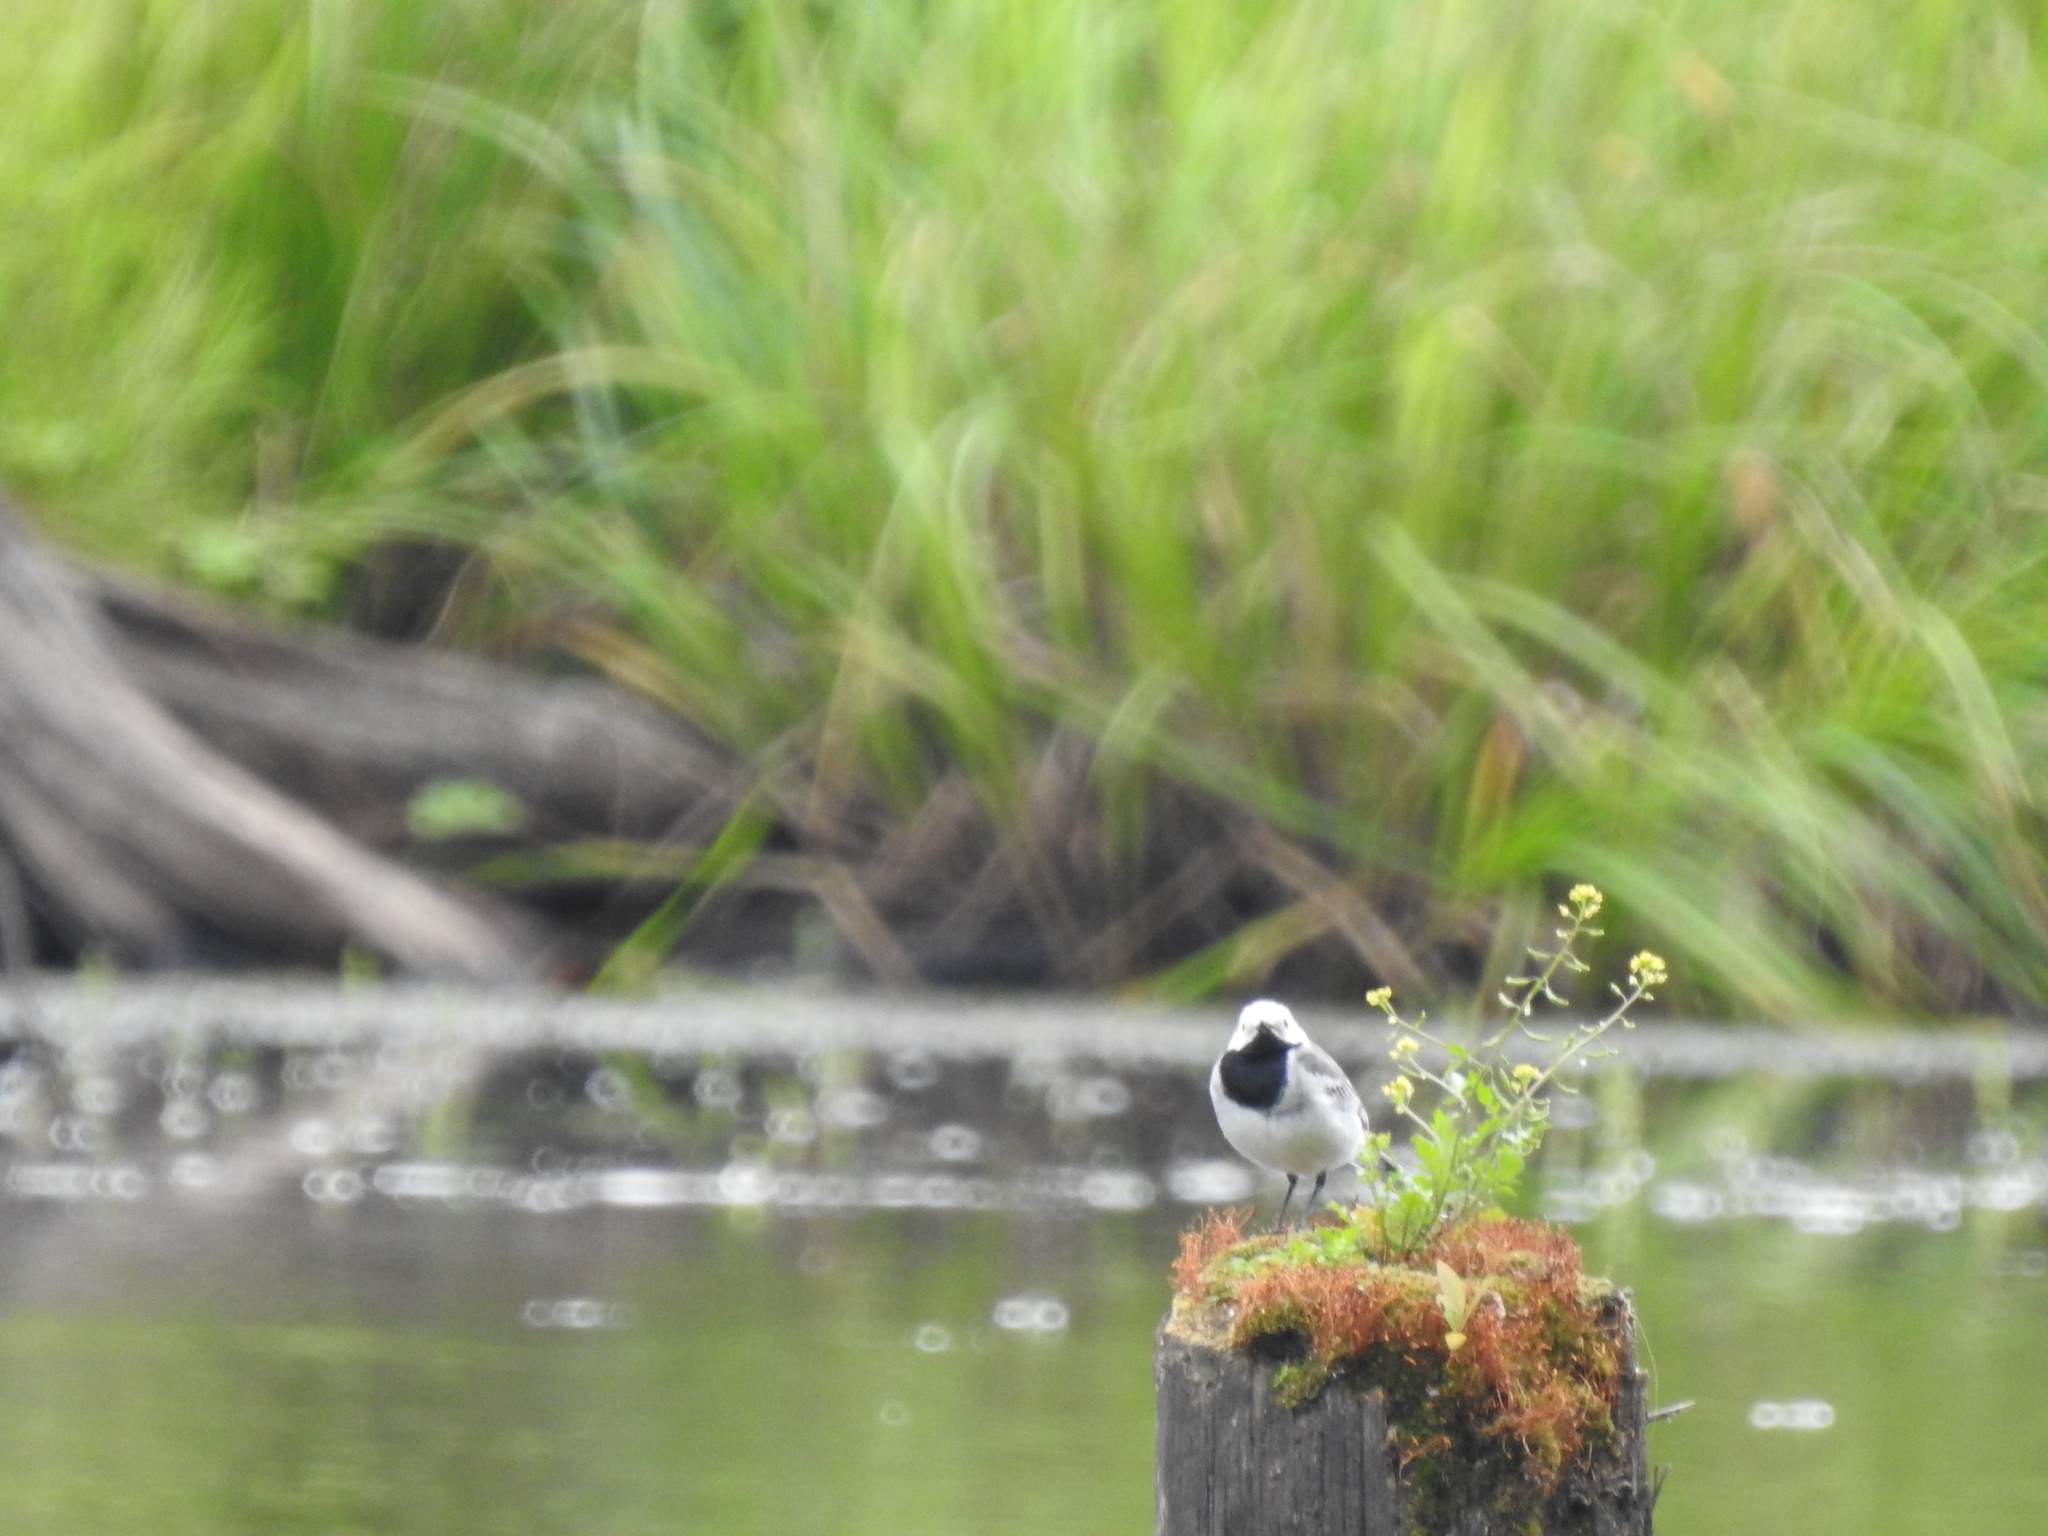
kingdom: Animalia
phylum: Chordata
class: Aves
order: Passeriformes
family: Motacillidae
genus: Motacilla
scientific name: Motacilla alba
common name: White wagtail
